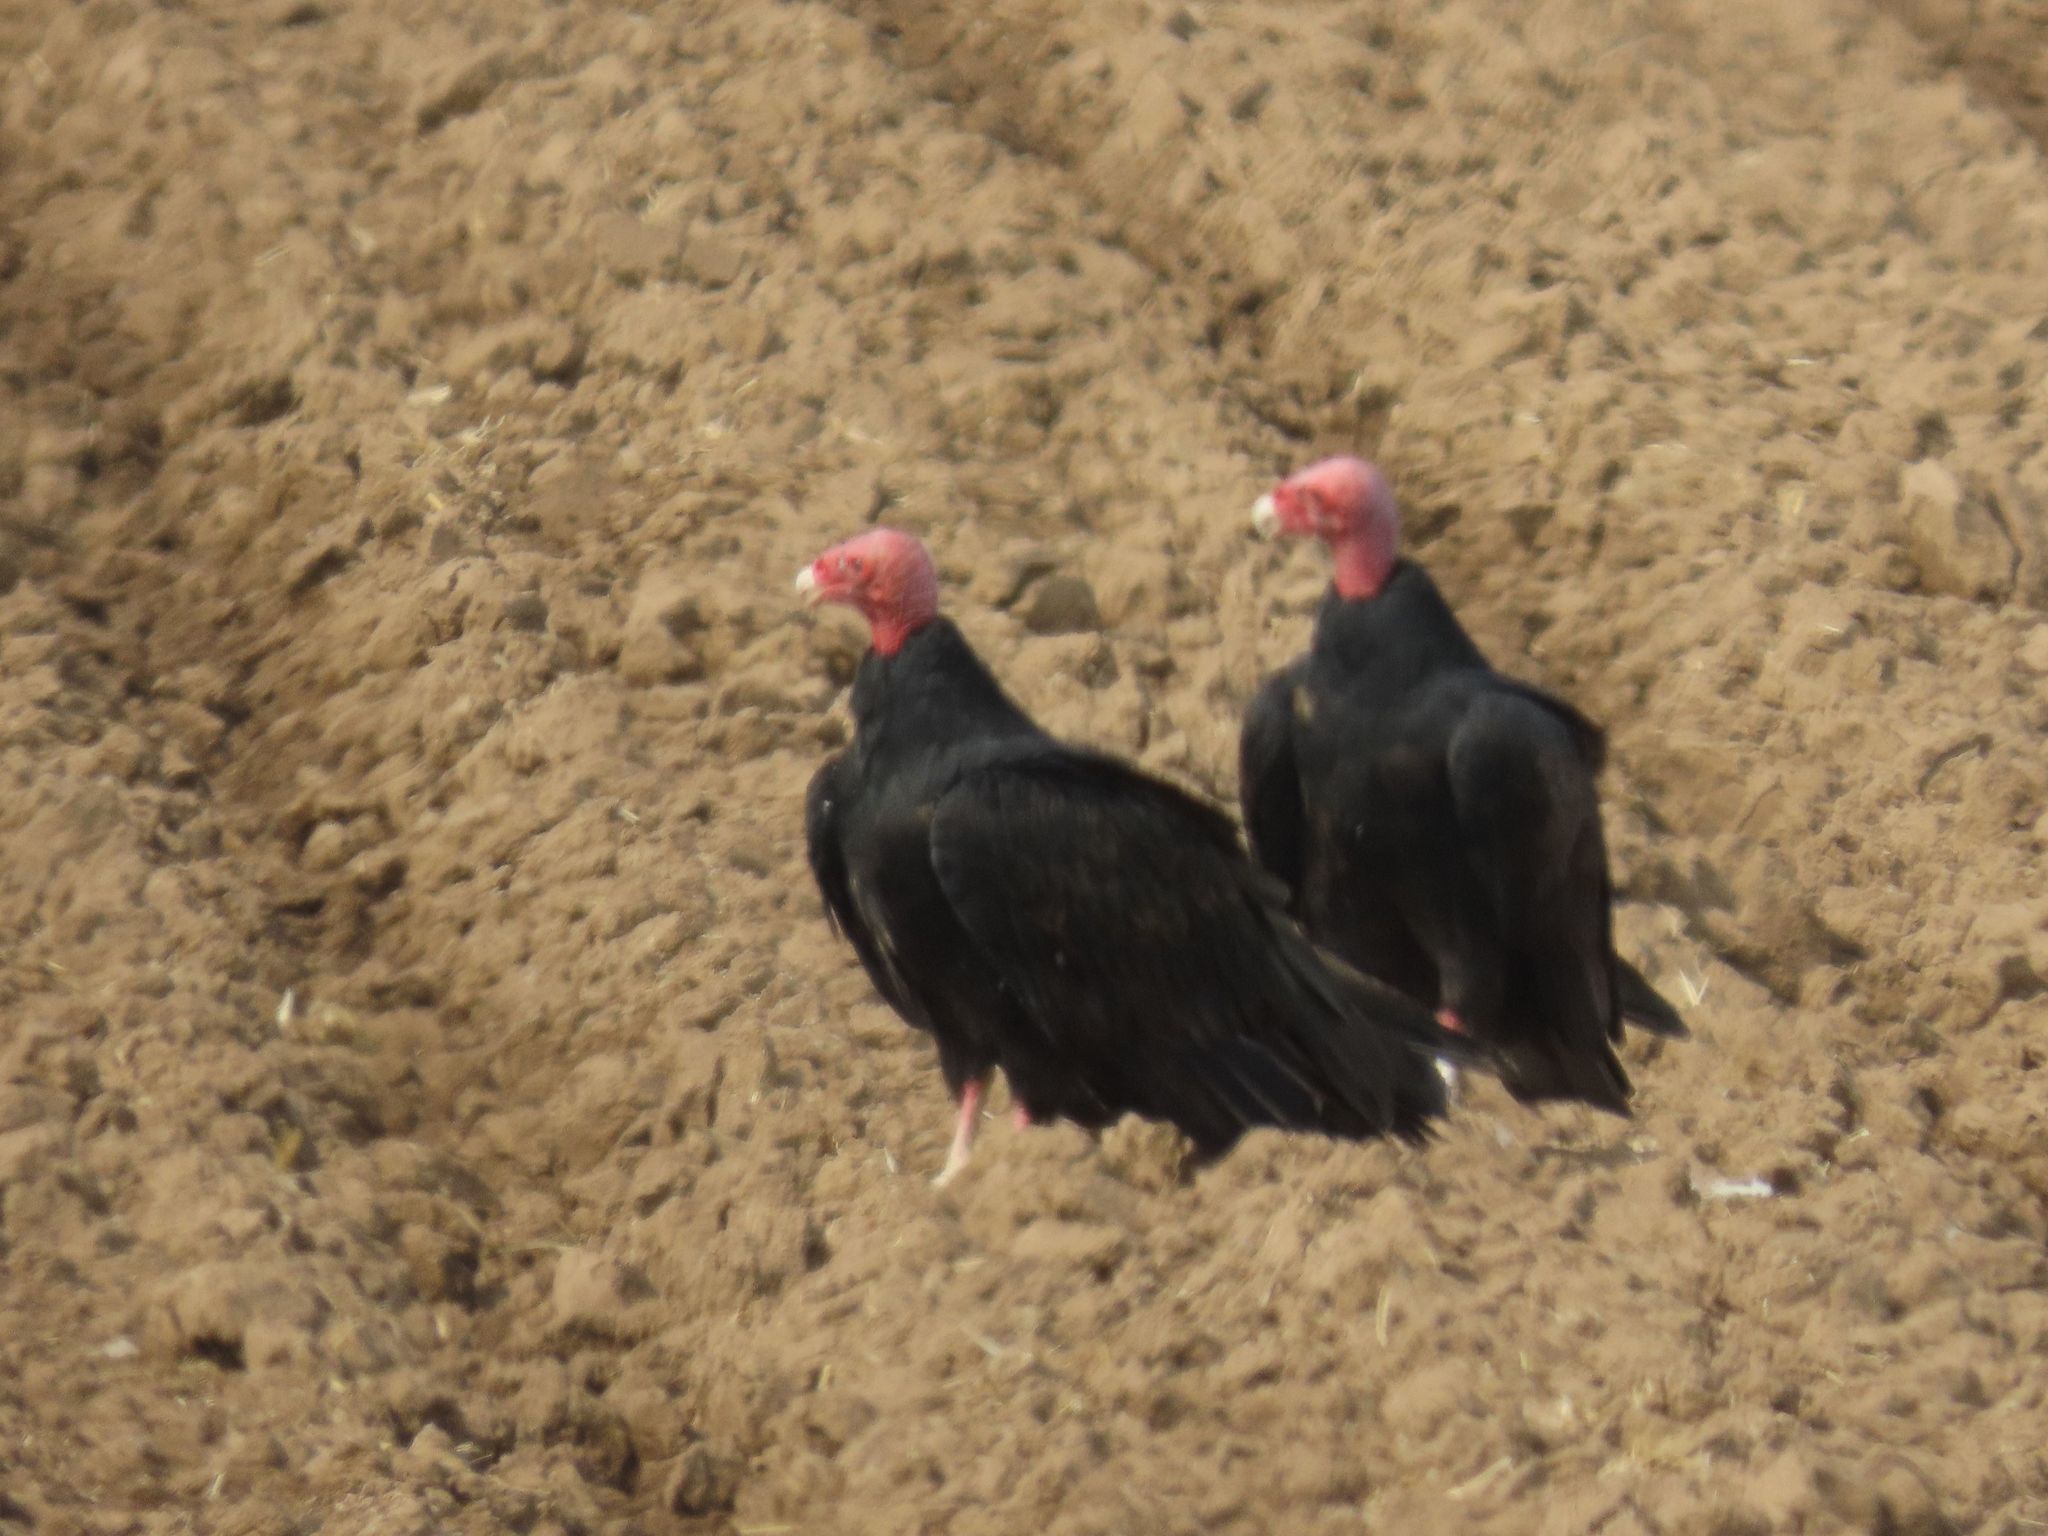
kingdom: Animalia
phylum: Chordata
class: Aves
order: Accipitriformes
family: Cathartidae
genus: Cathartes
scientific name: Cathartes aura
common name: Turkey vulture
